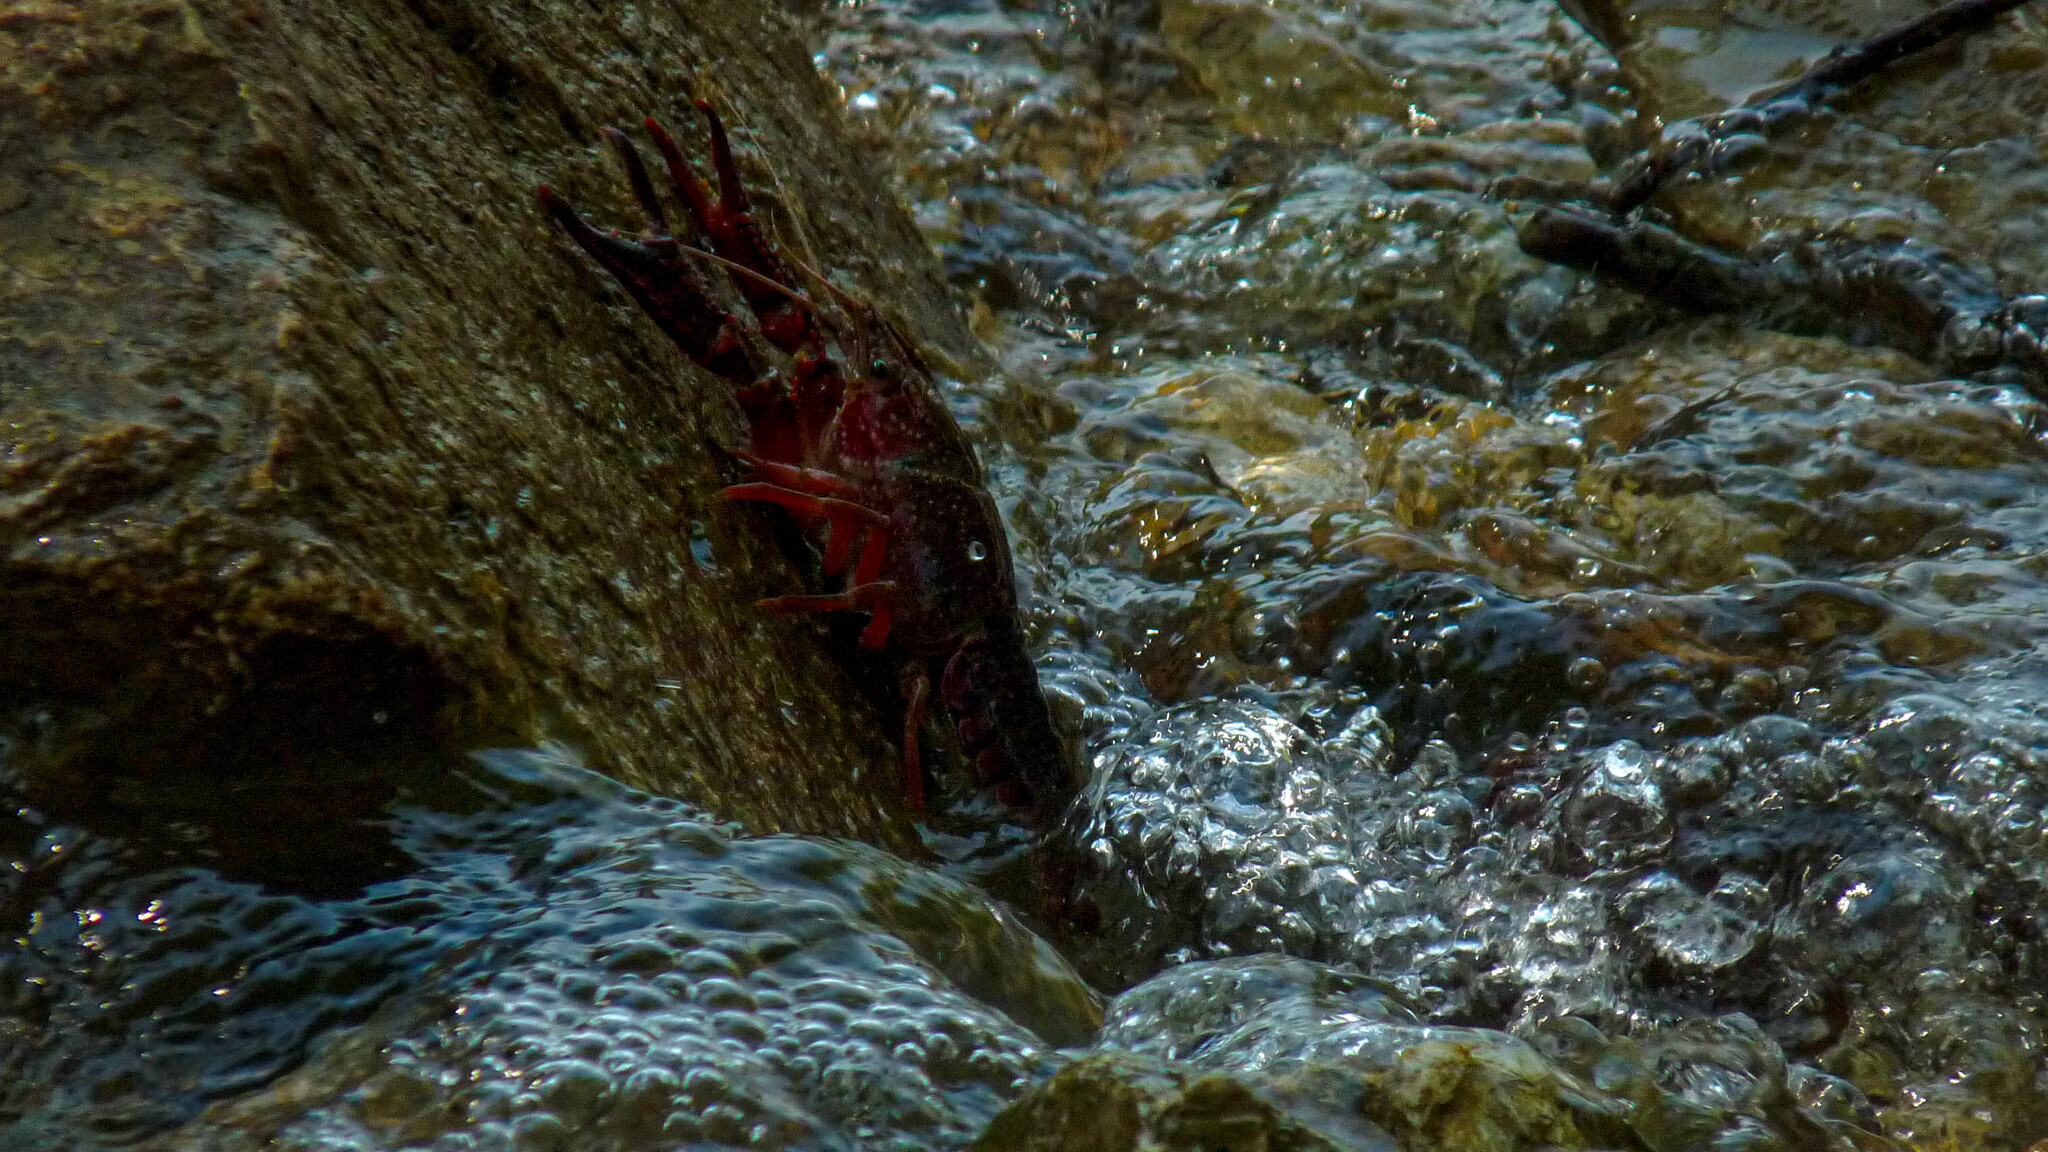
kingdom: Animalia
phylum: Arthropoda
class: Malacostraca
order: Decapoda
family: Cambaridae
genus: Procambarus
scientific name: Procambarus clarkii
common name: Red swamp crayfish
